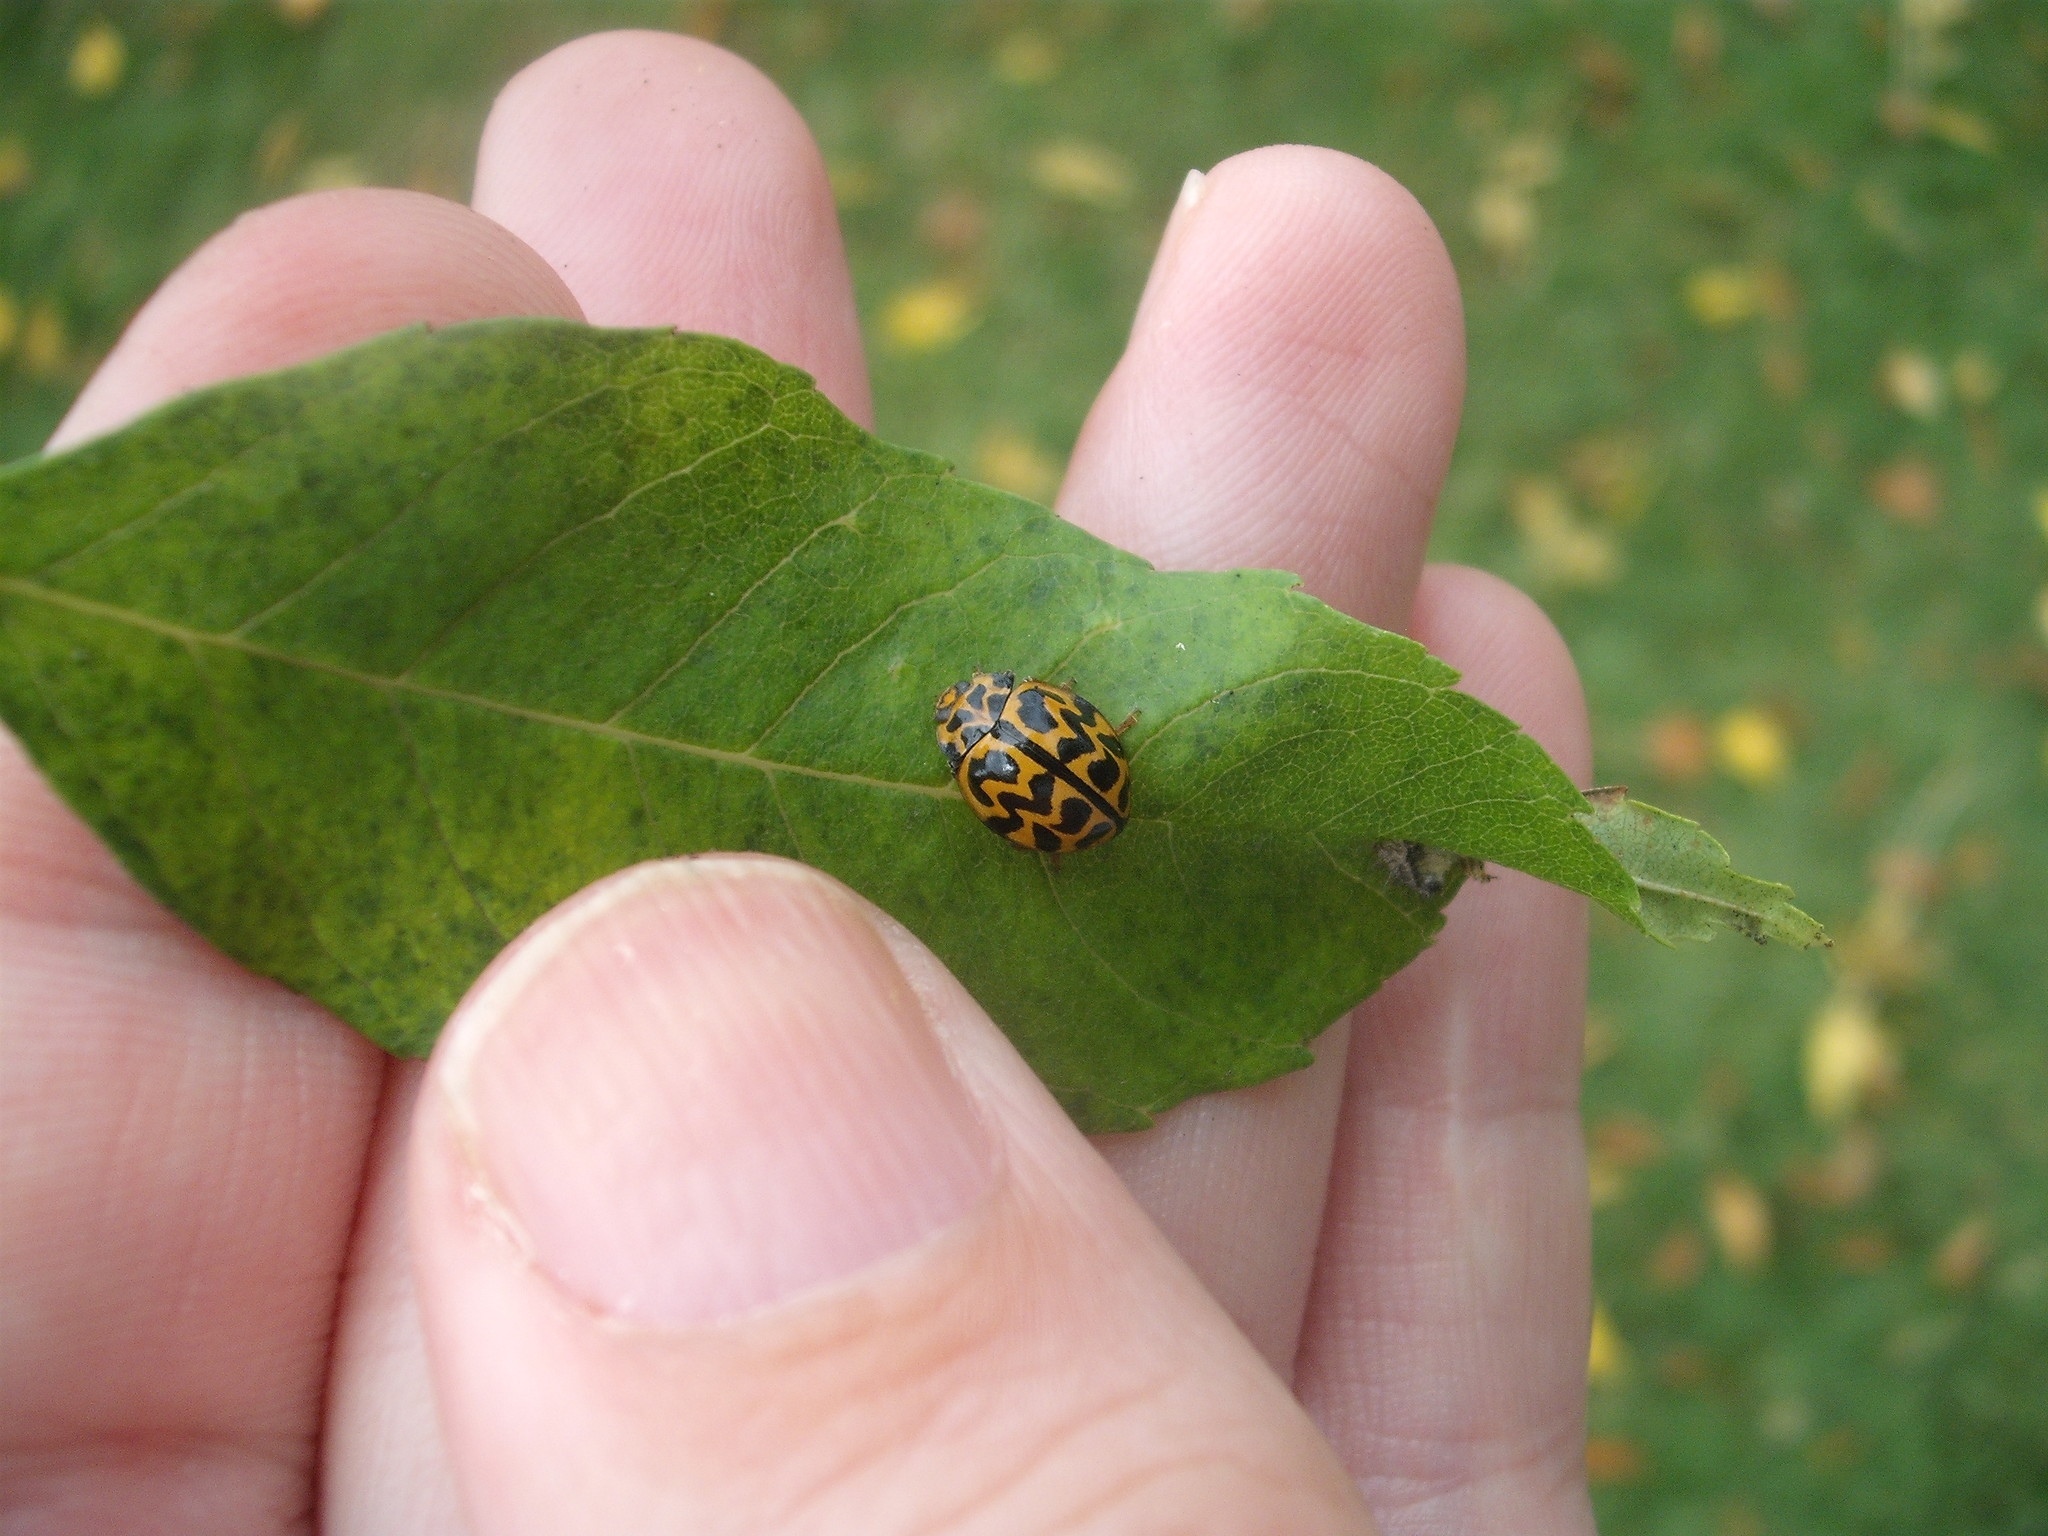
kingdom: Animalia
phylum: Arthropoda
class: Insecta
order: Coleoptera
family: Coccinellidae
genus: Cleobora
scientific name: Cleobora
